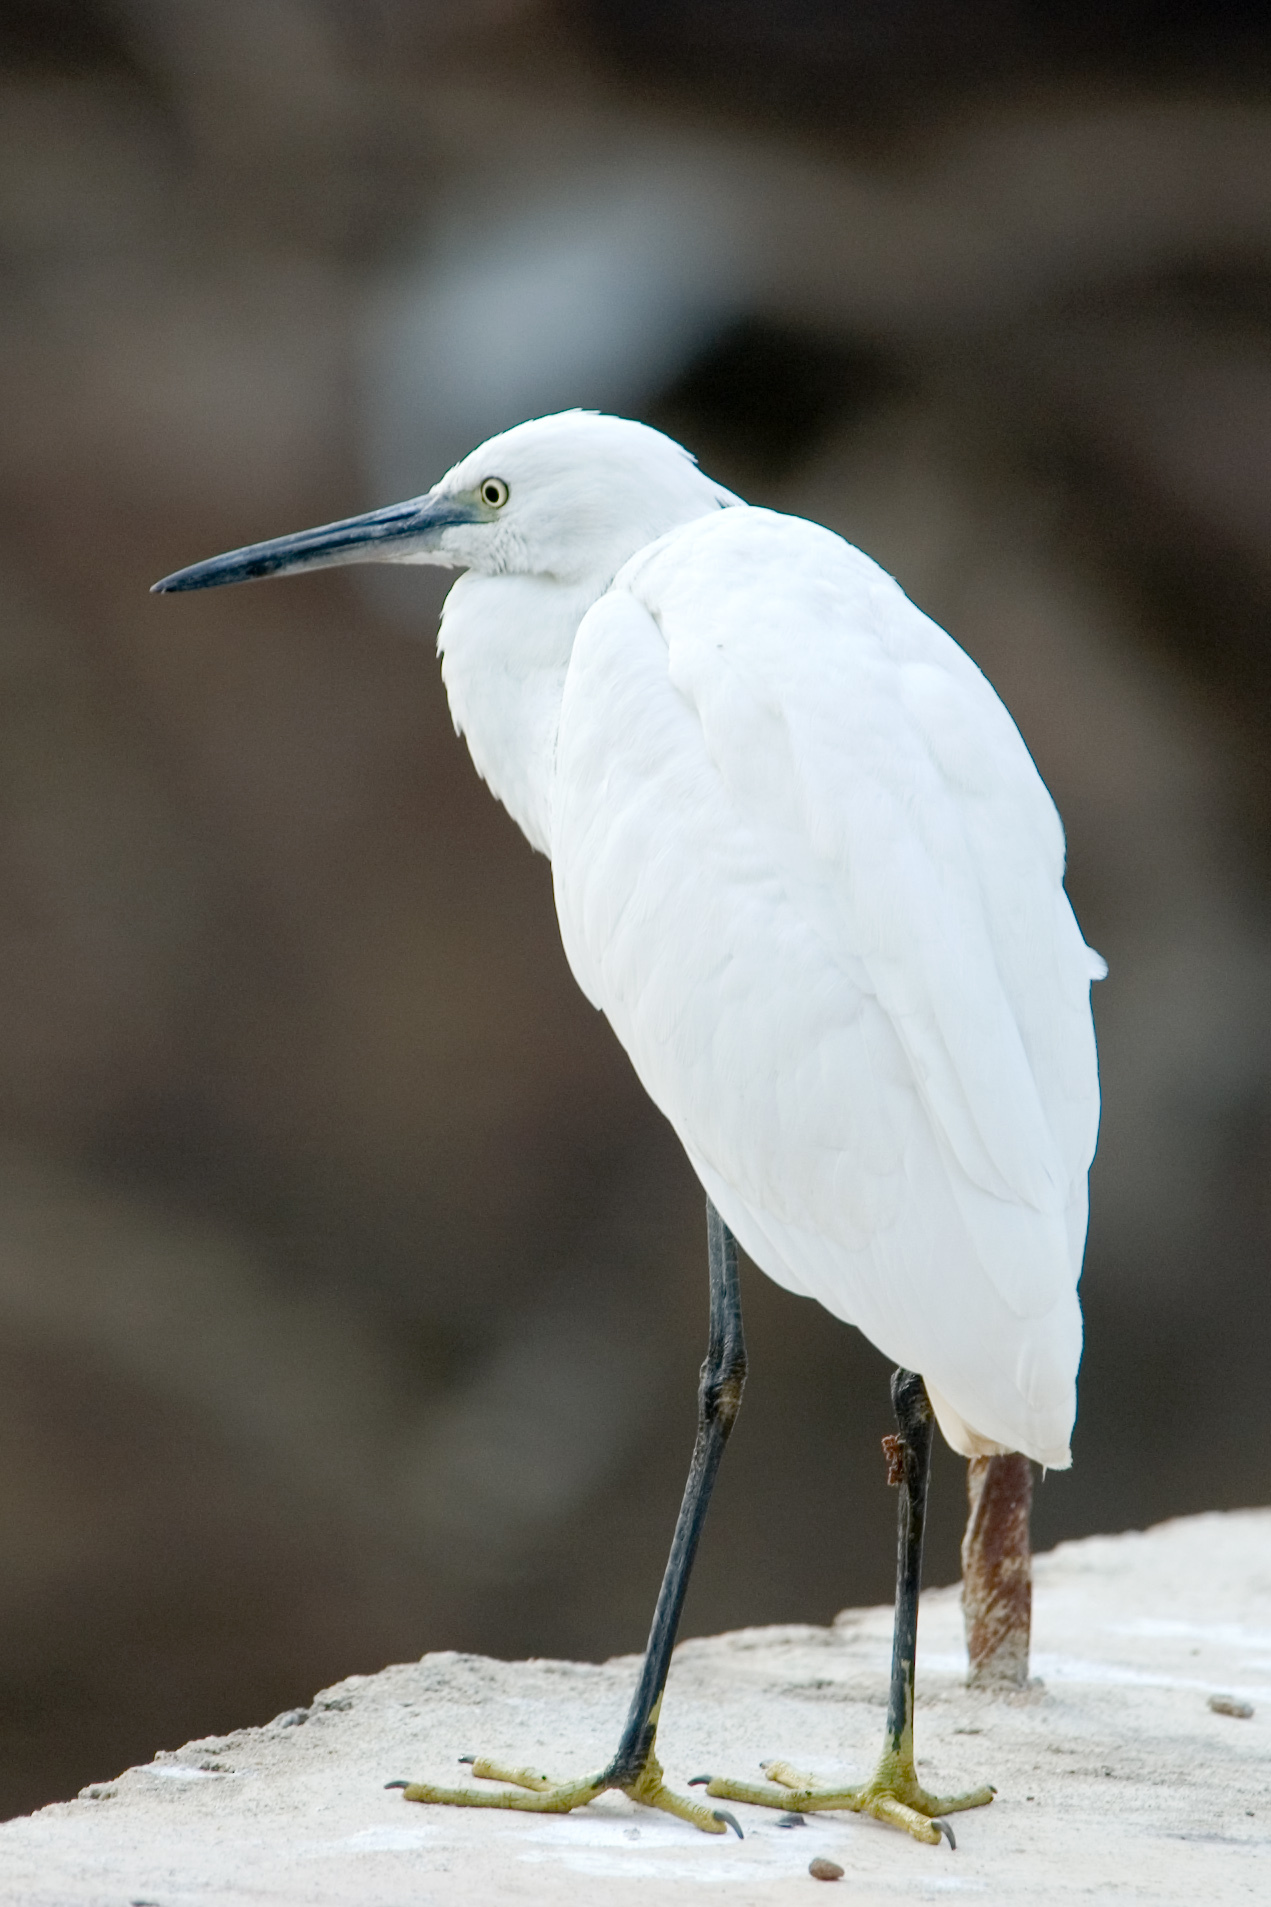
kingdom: Animalia
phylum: Chordata
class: Aves
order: Pelecaniformes
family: Ardeidae
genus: Egretta
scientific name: Egretta garzetta
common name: Little egret
